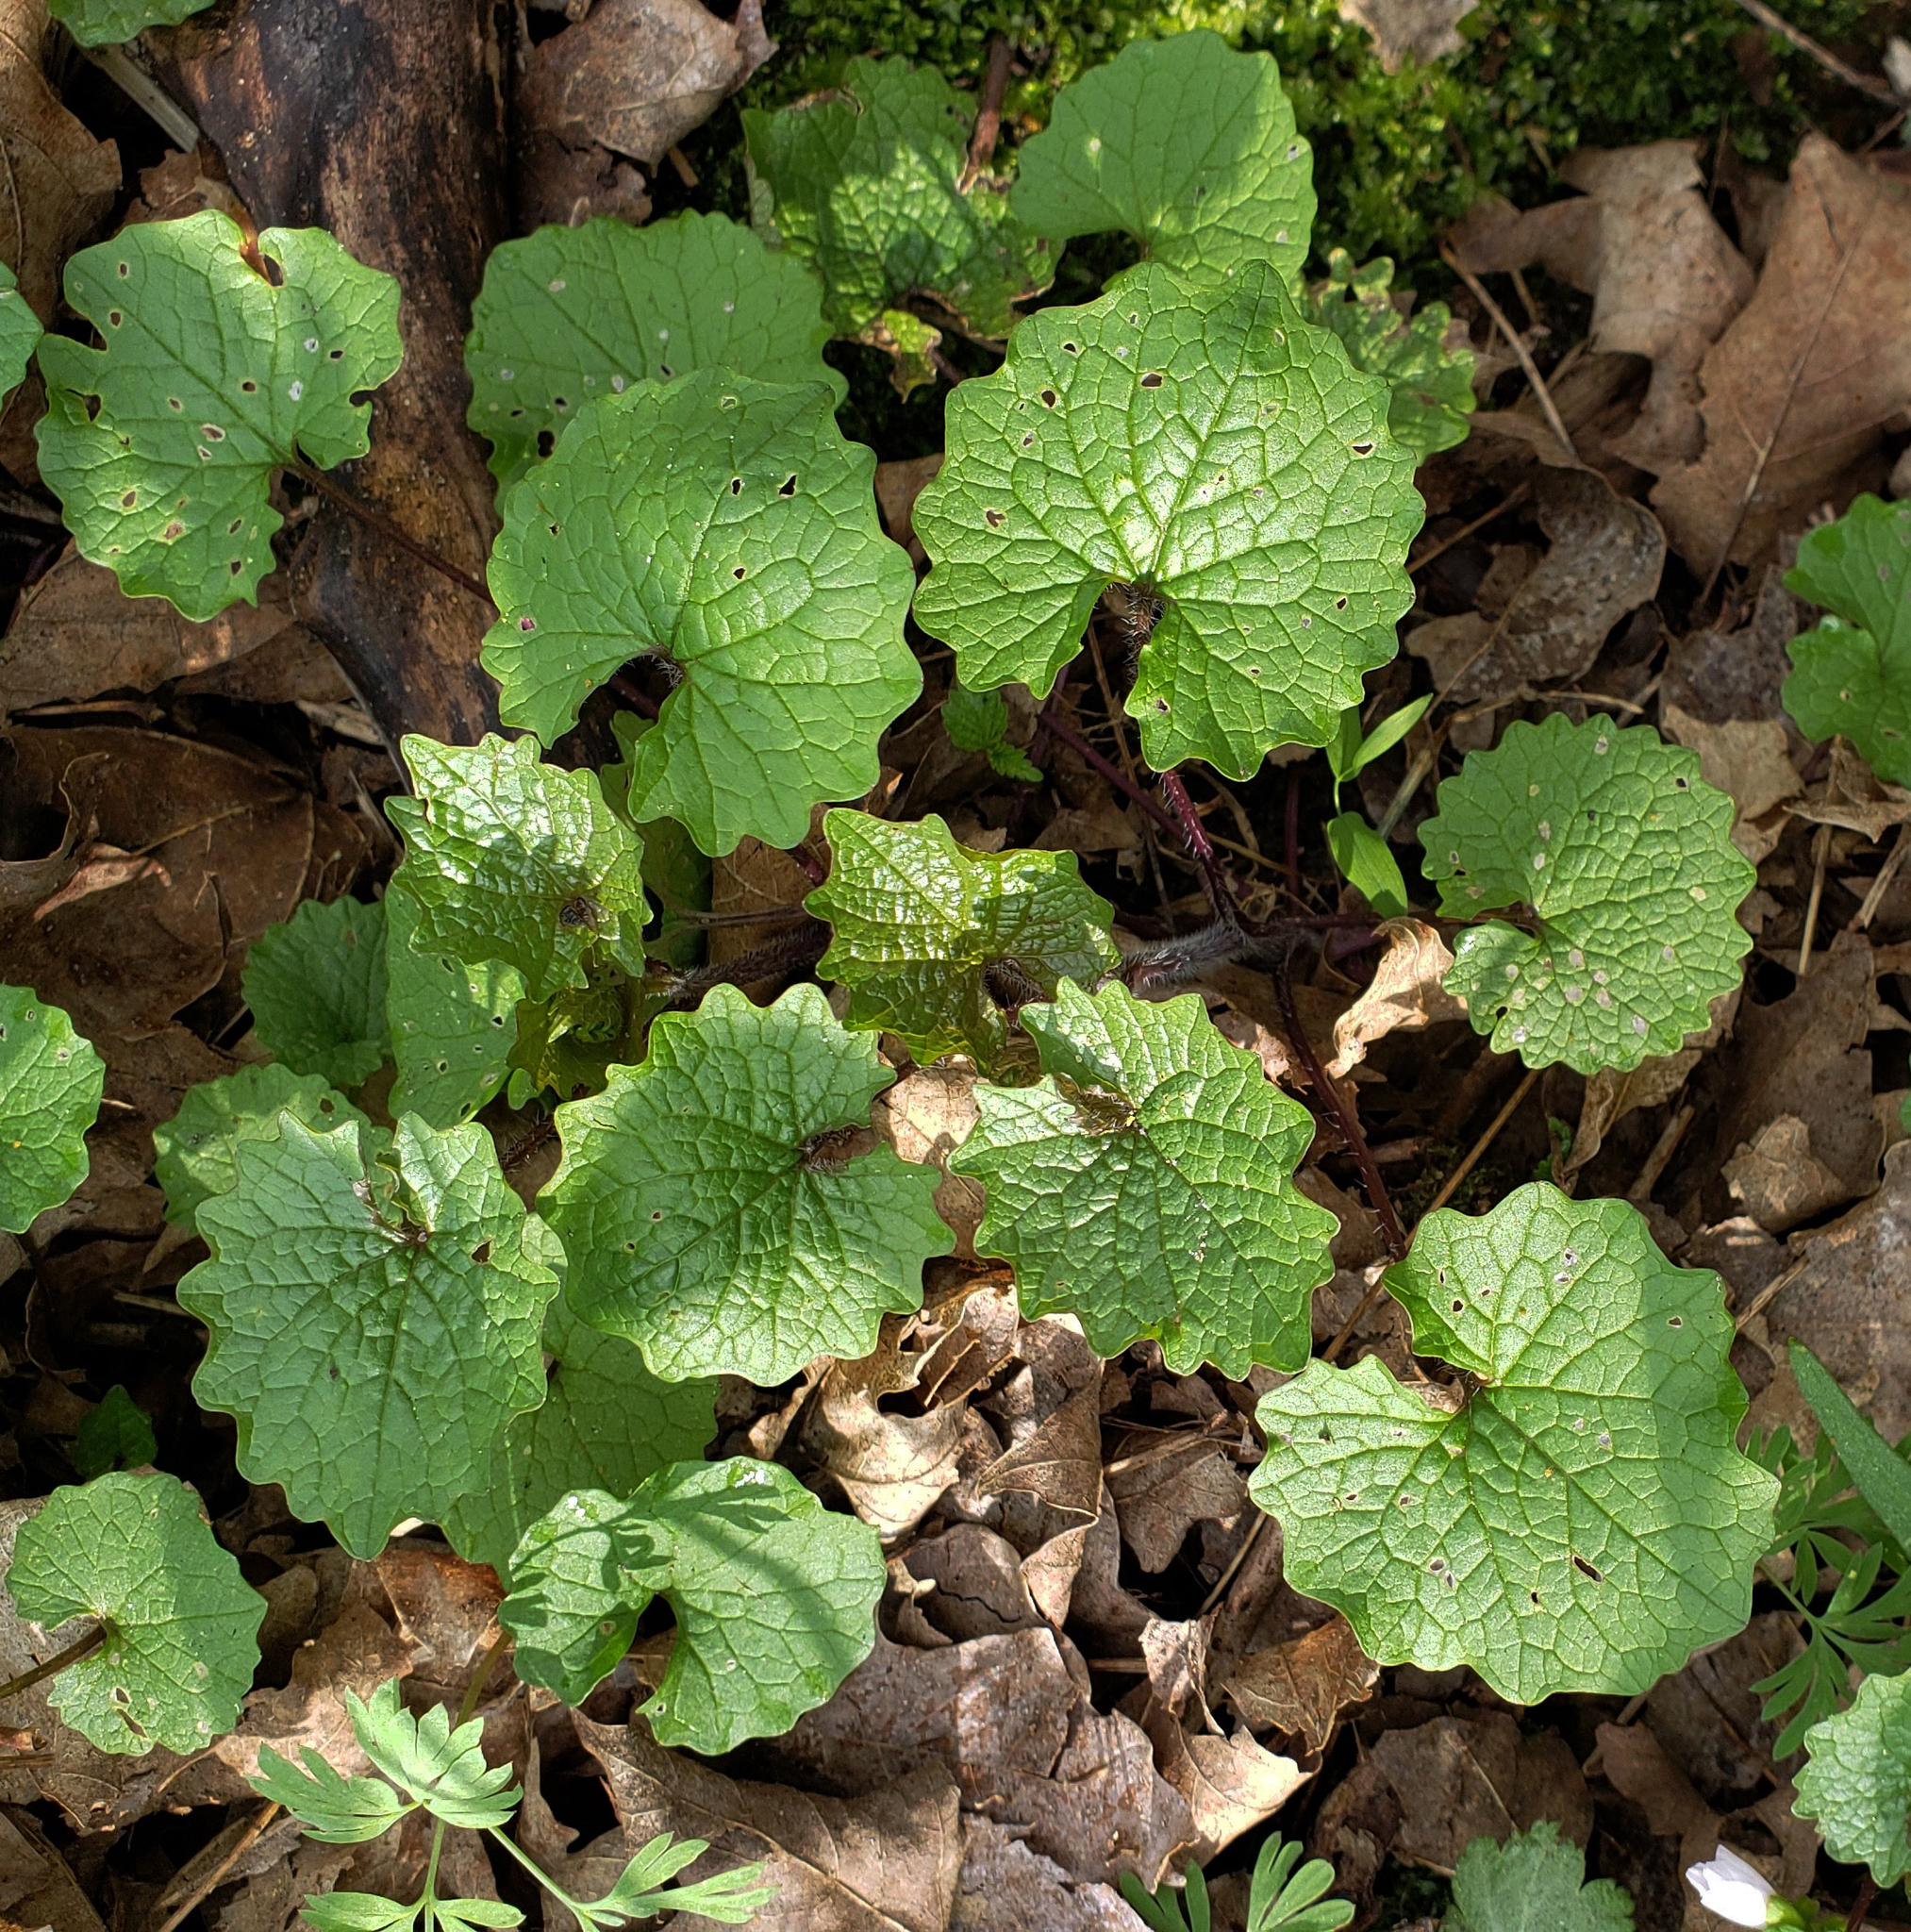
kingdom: Plantae
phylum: Tracheophyta
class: Magnoliopsida
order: Brassicales
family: Brassicaceae
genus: Alliaria
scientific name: Alliaria petiolata
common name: Garlic mustard
